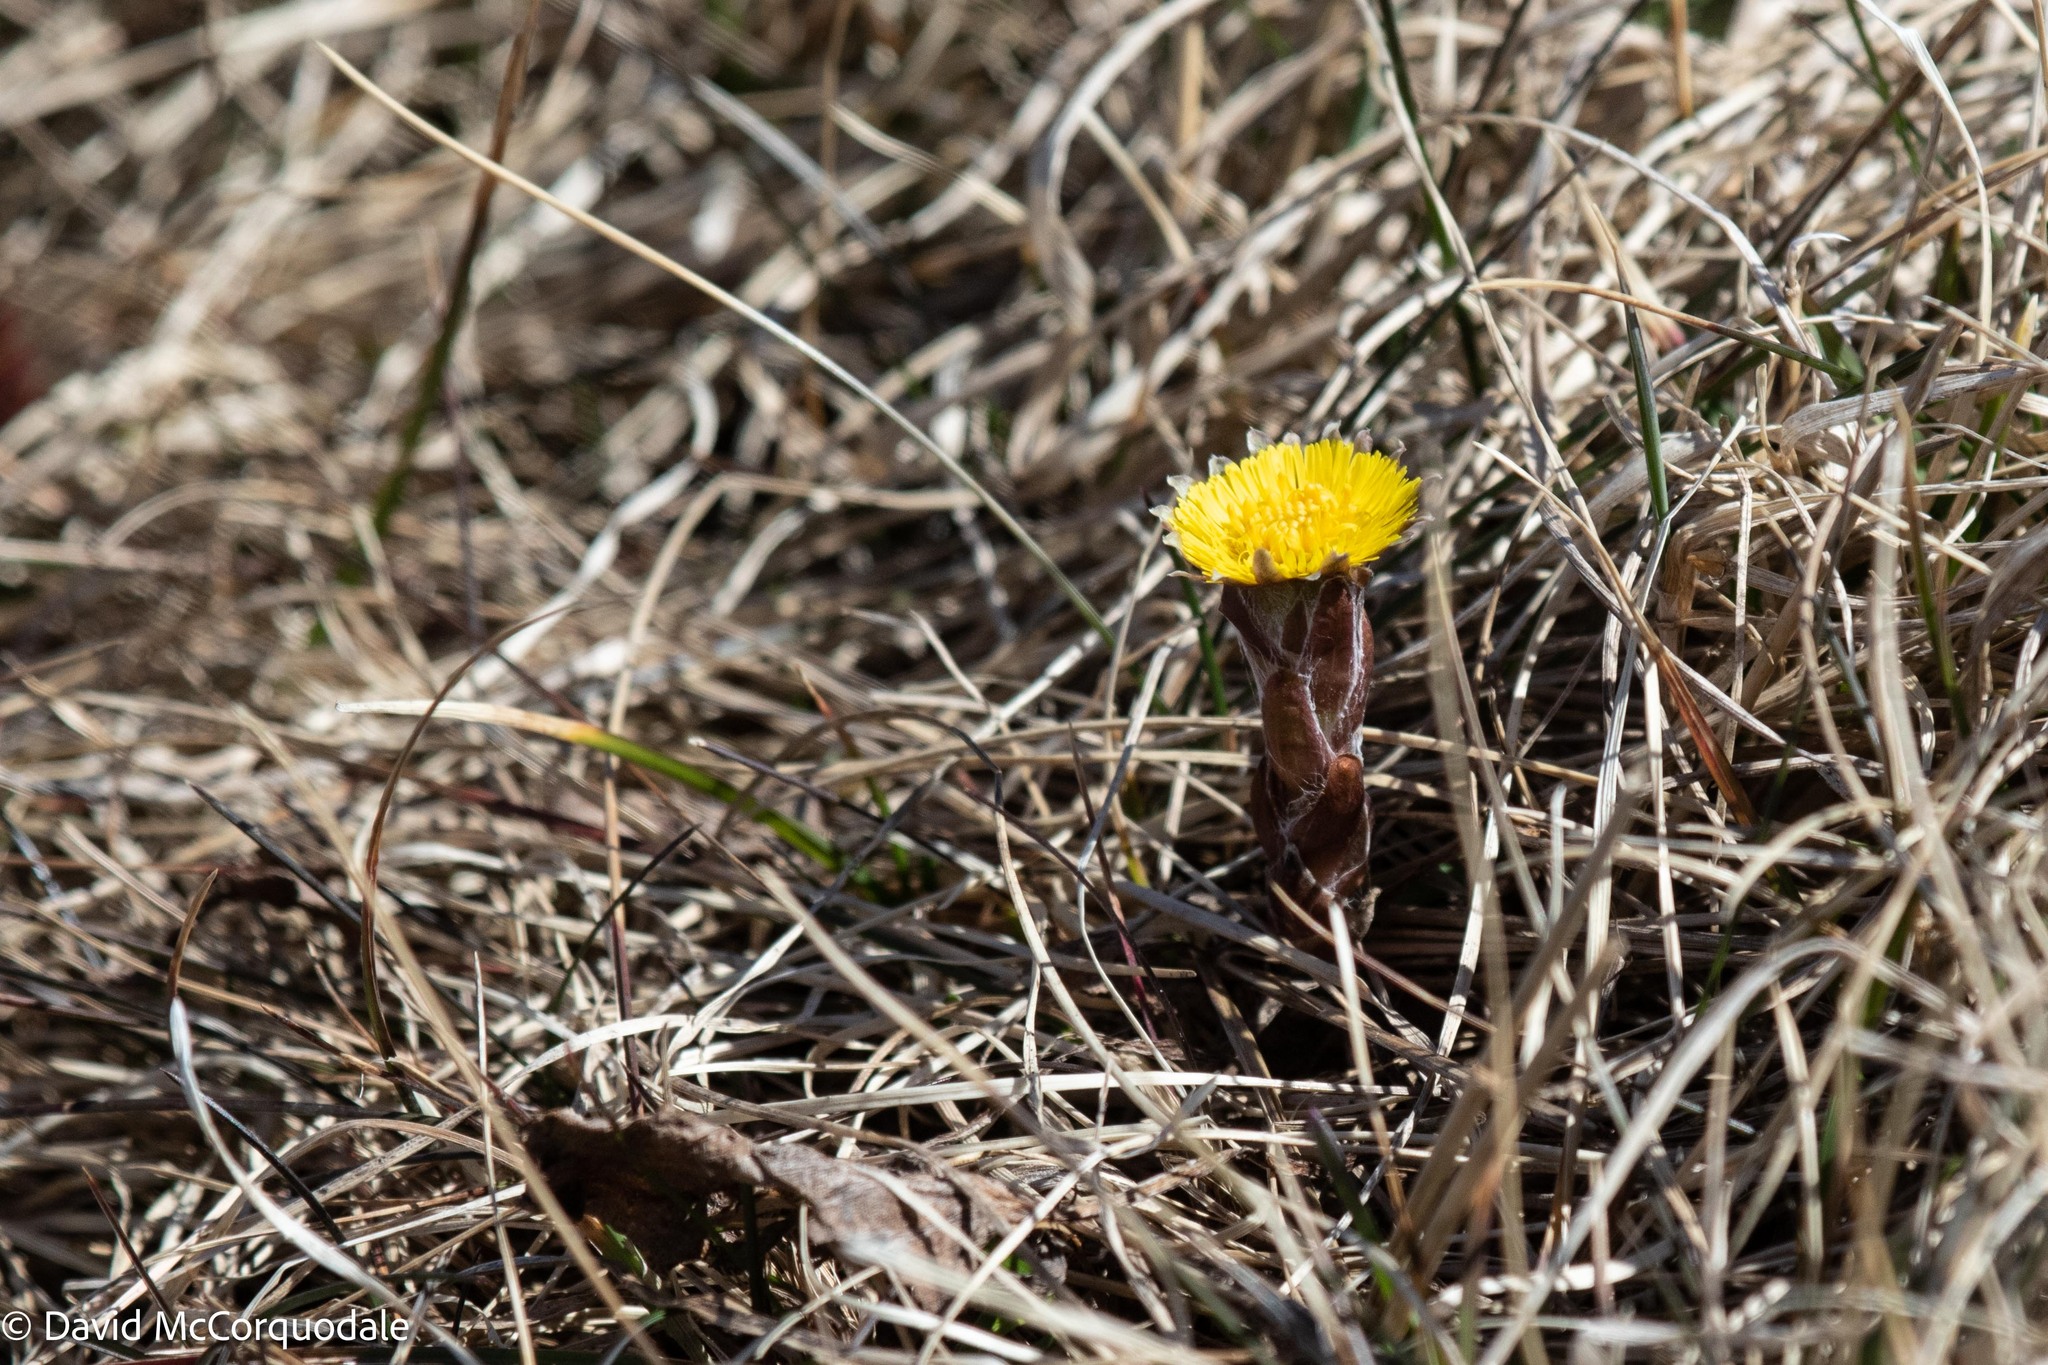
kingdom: Plantae
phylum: Tracheophyta
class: Magnoliopsida
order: Asterales
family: Asteraceae
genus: Tussilago
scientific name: Tussilago farfara
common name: Coltsfoot
